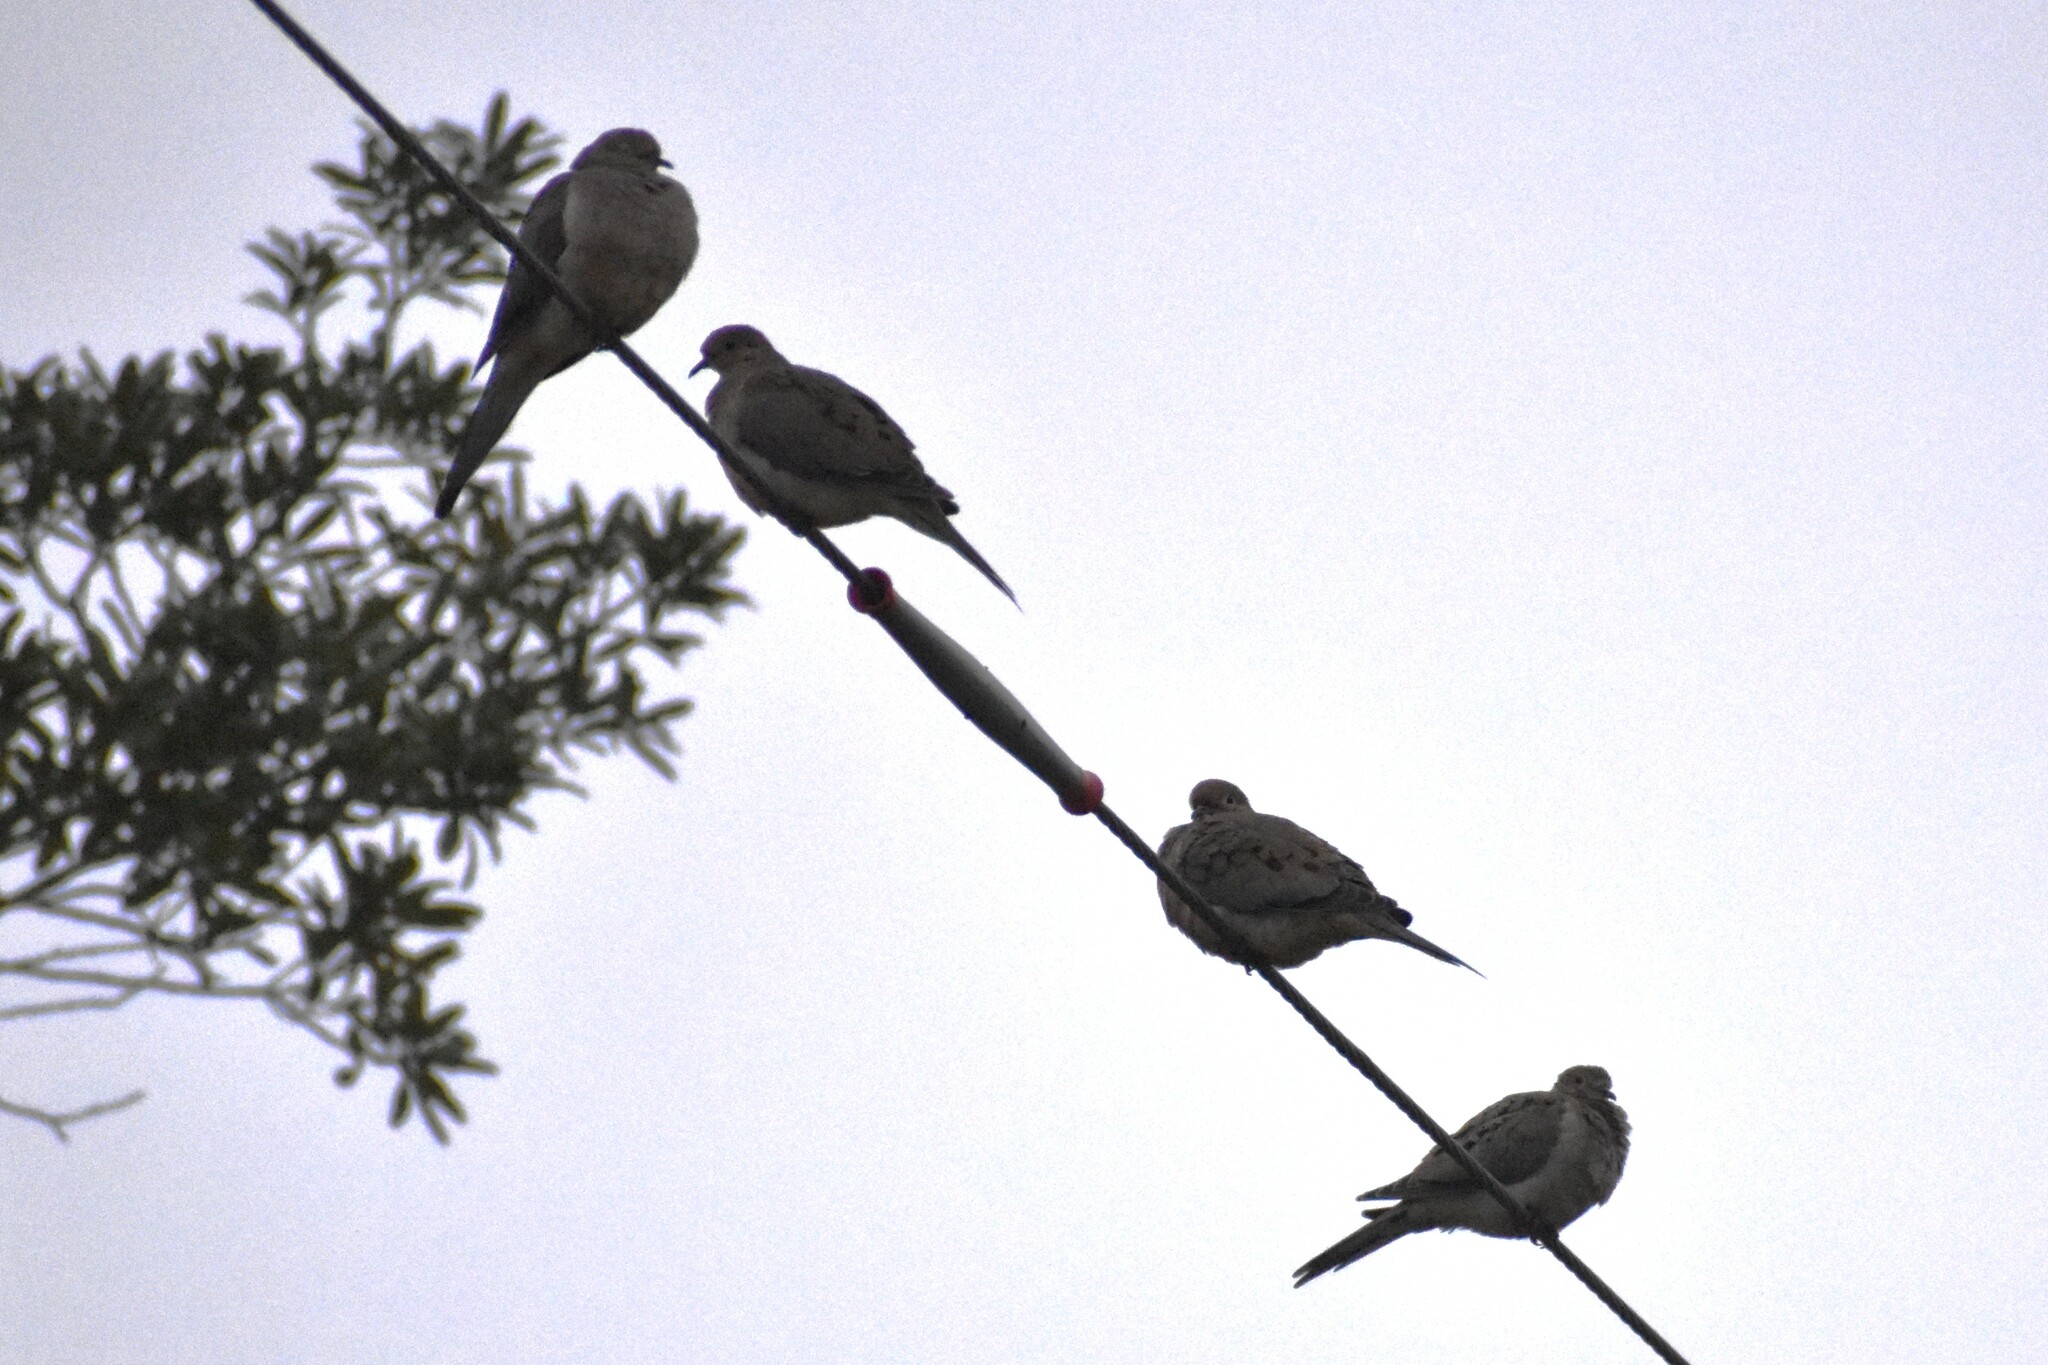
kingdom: Animalia
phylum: Chordata
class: Aves
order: Columbiformes
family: Columbidae
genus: Zenaida
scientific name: Zenaida macroura
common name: Mourning dove
